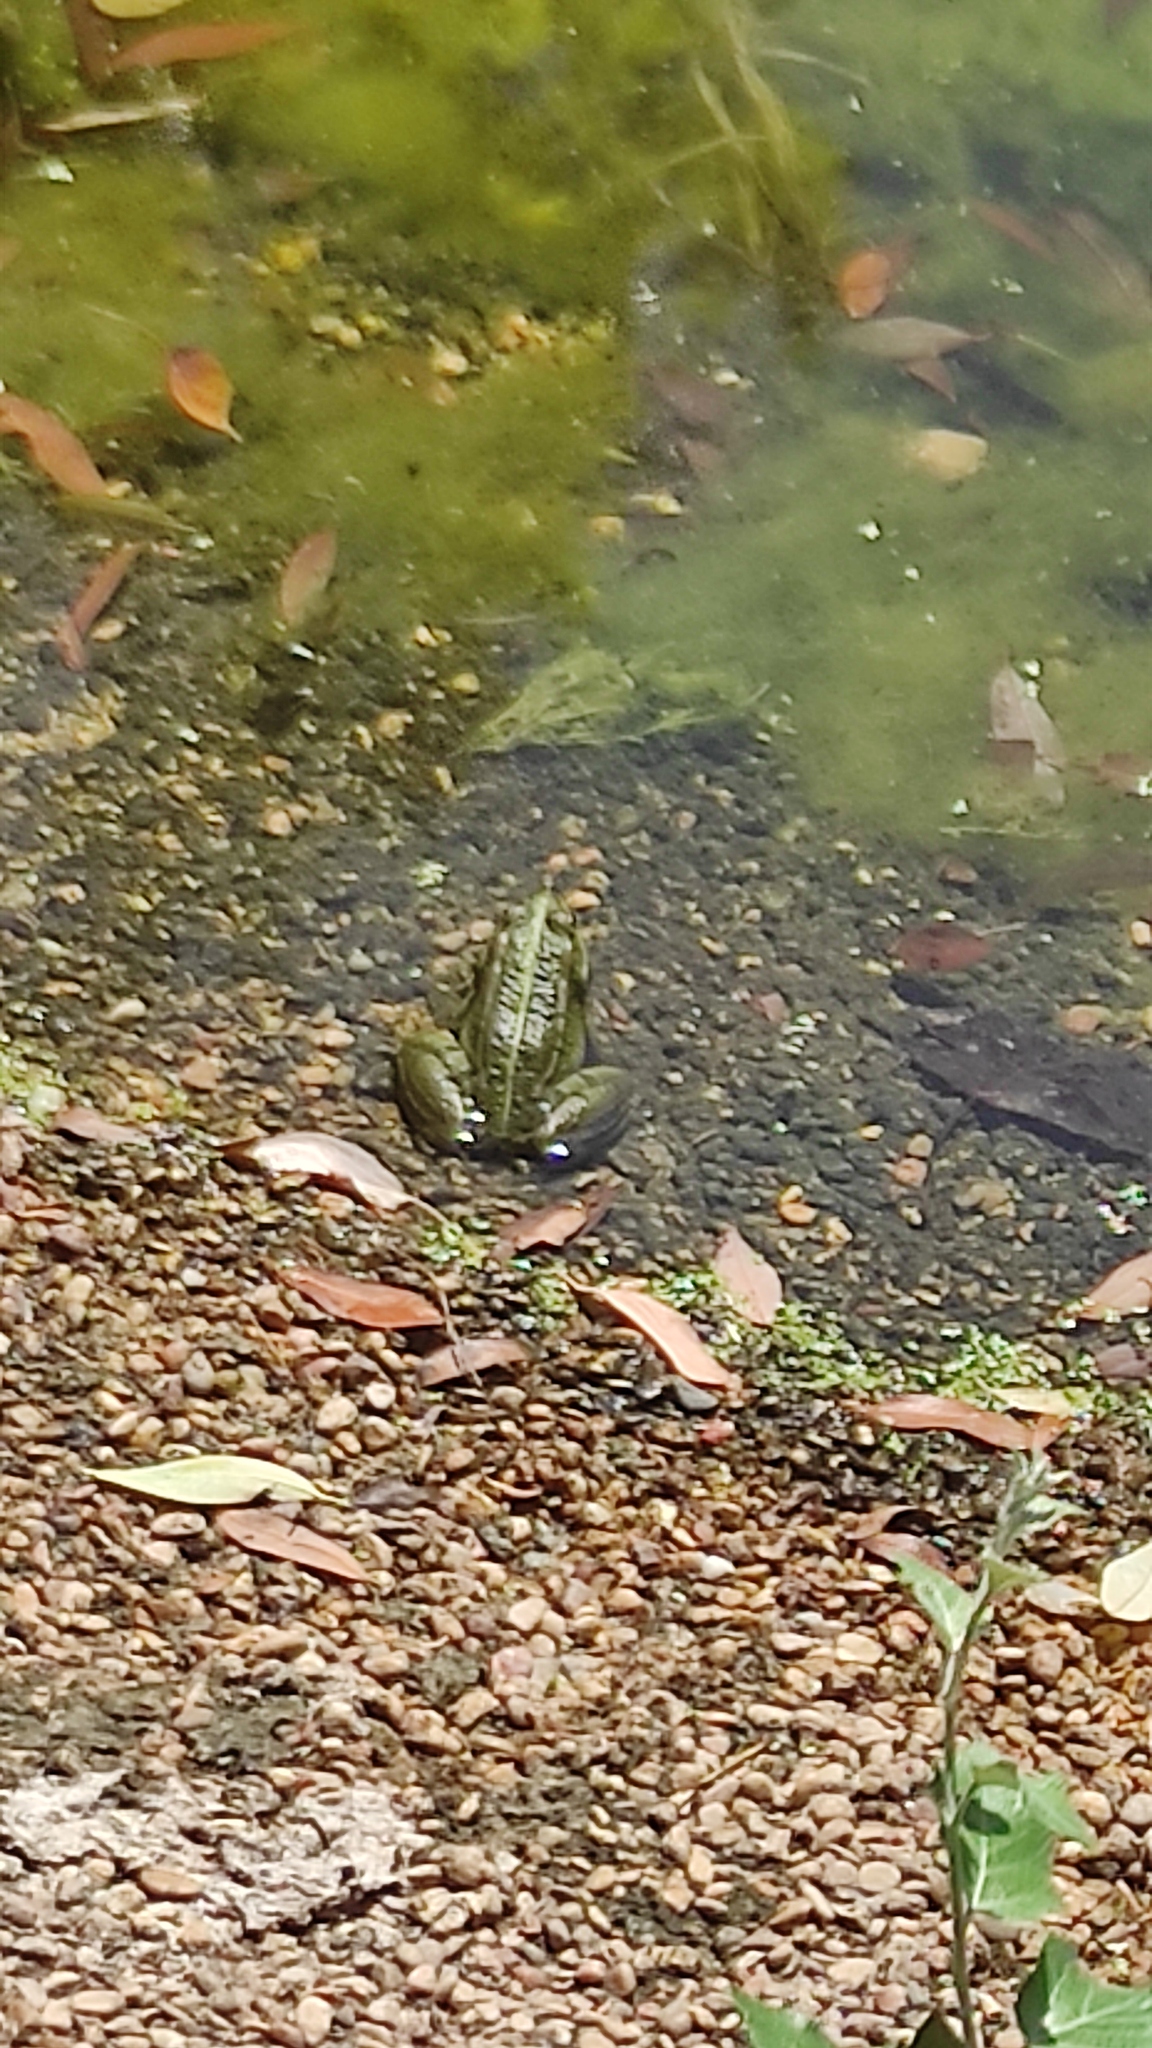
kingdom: Animalia
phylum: Chordata
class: Amphibia
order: Anura
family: Ranidae
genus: Pelophylax
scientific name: Pelophylax perezi
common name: Perez's frog
